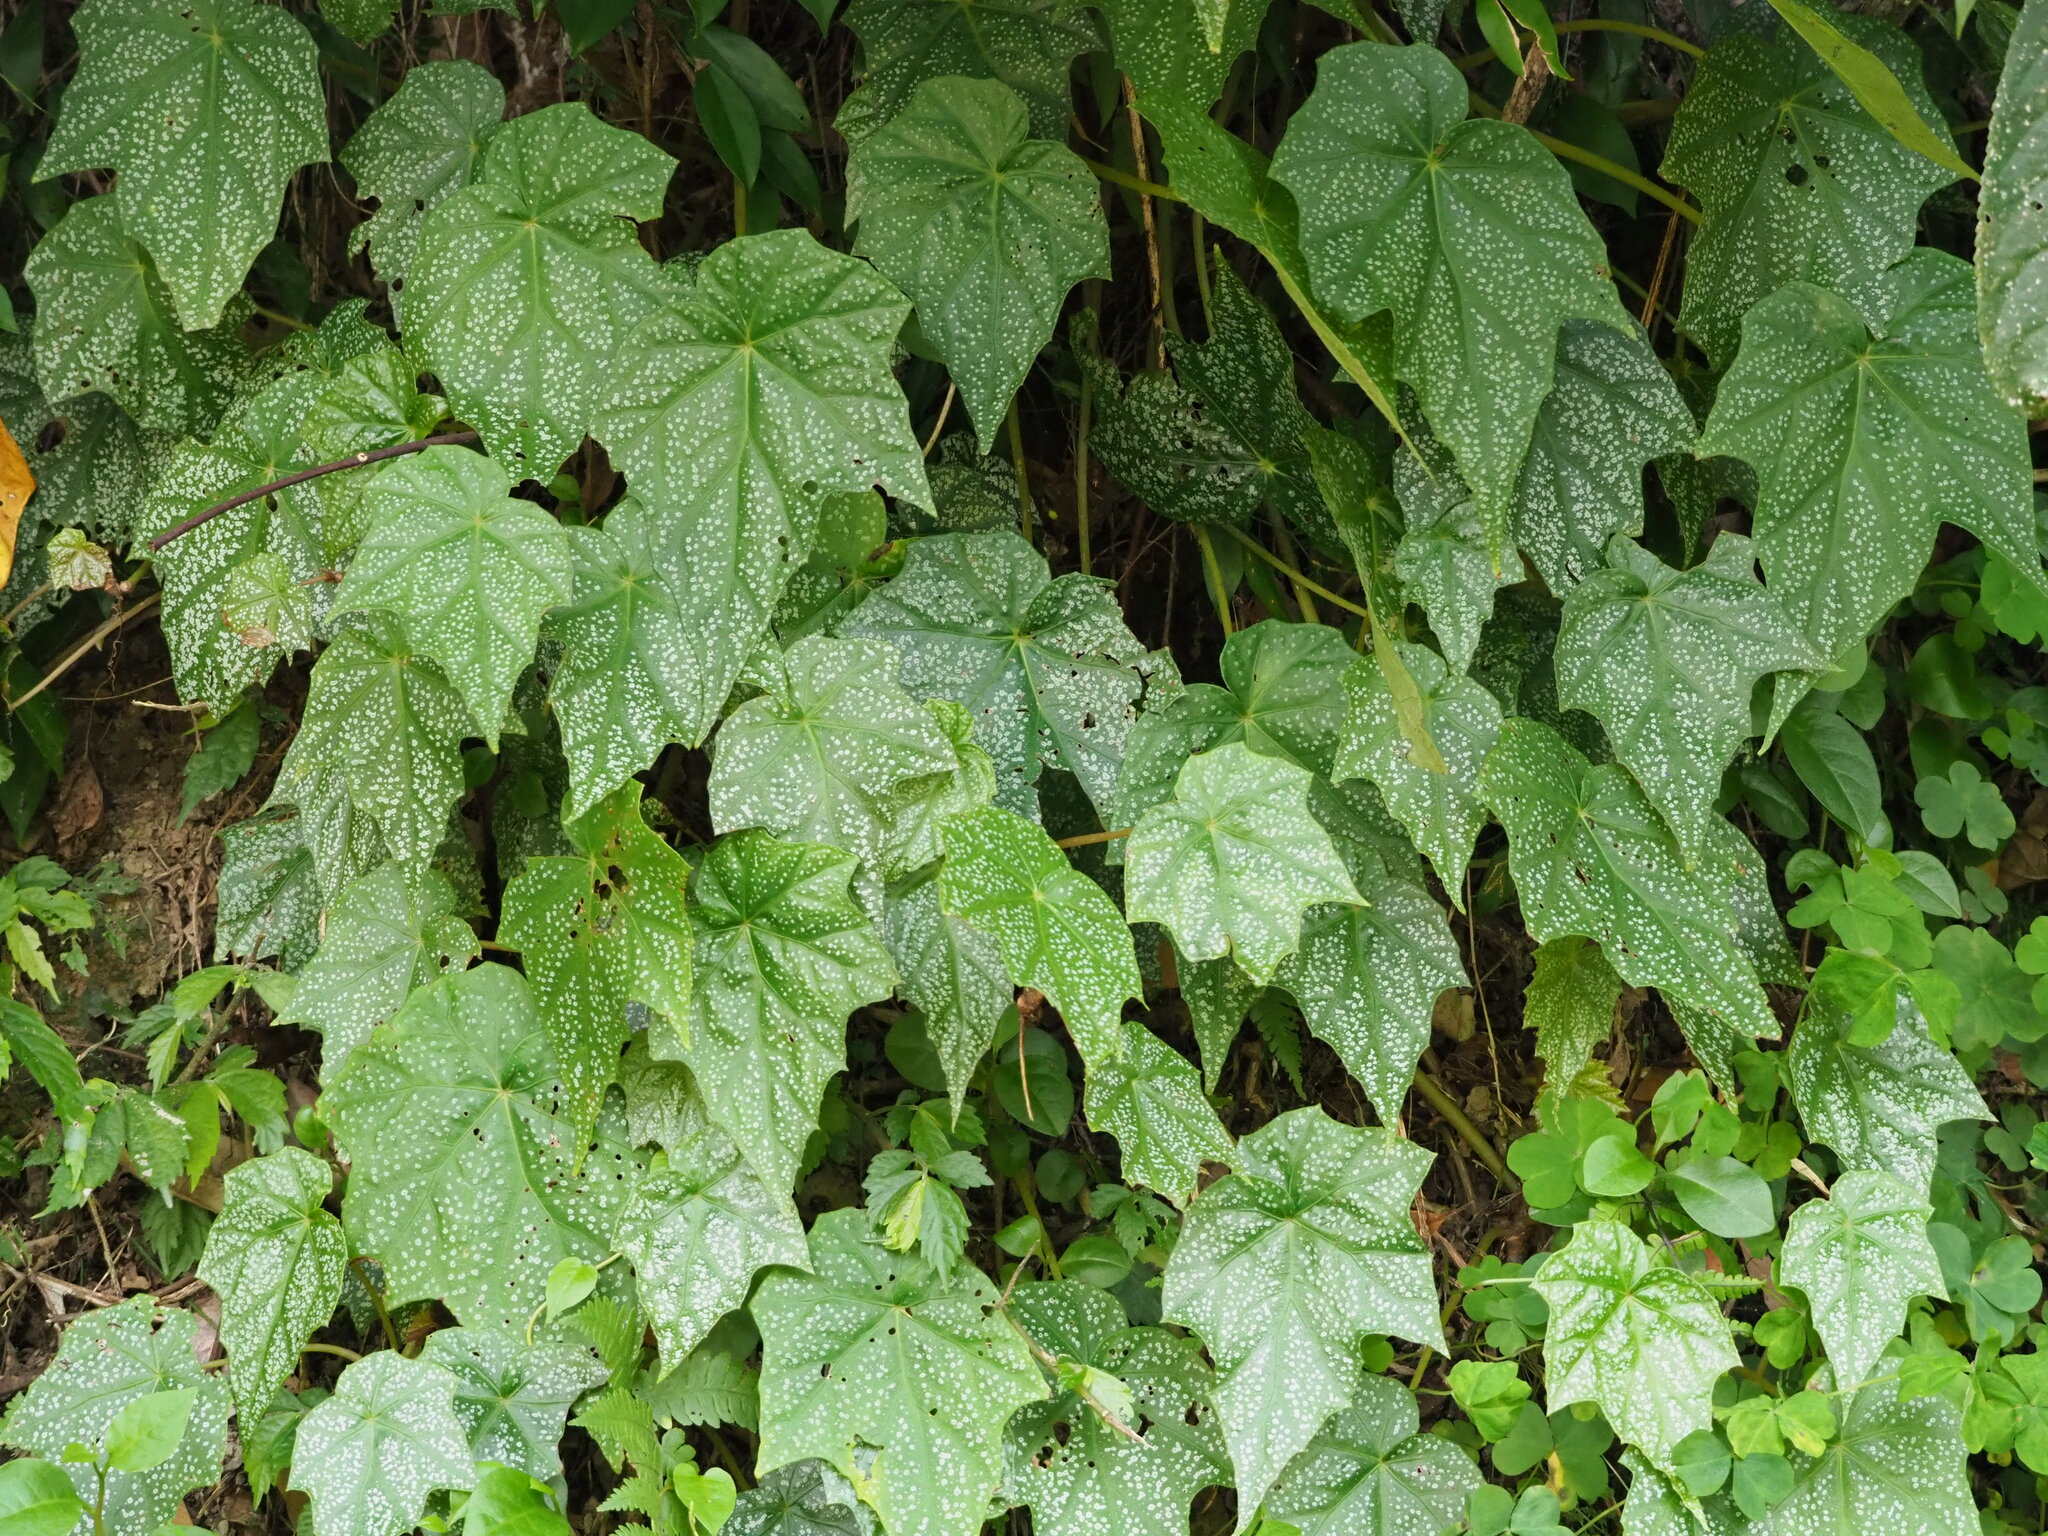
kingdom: Plantae
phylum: Tracheophyta
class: Magnoliopsida
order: Cucurbitales
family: Begoniaceae
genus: Begonia
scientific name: Begonia formosana
